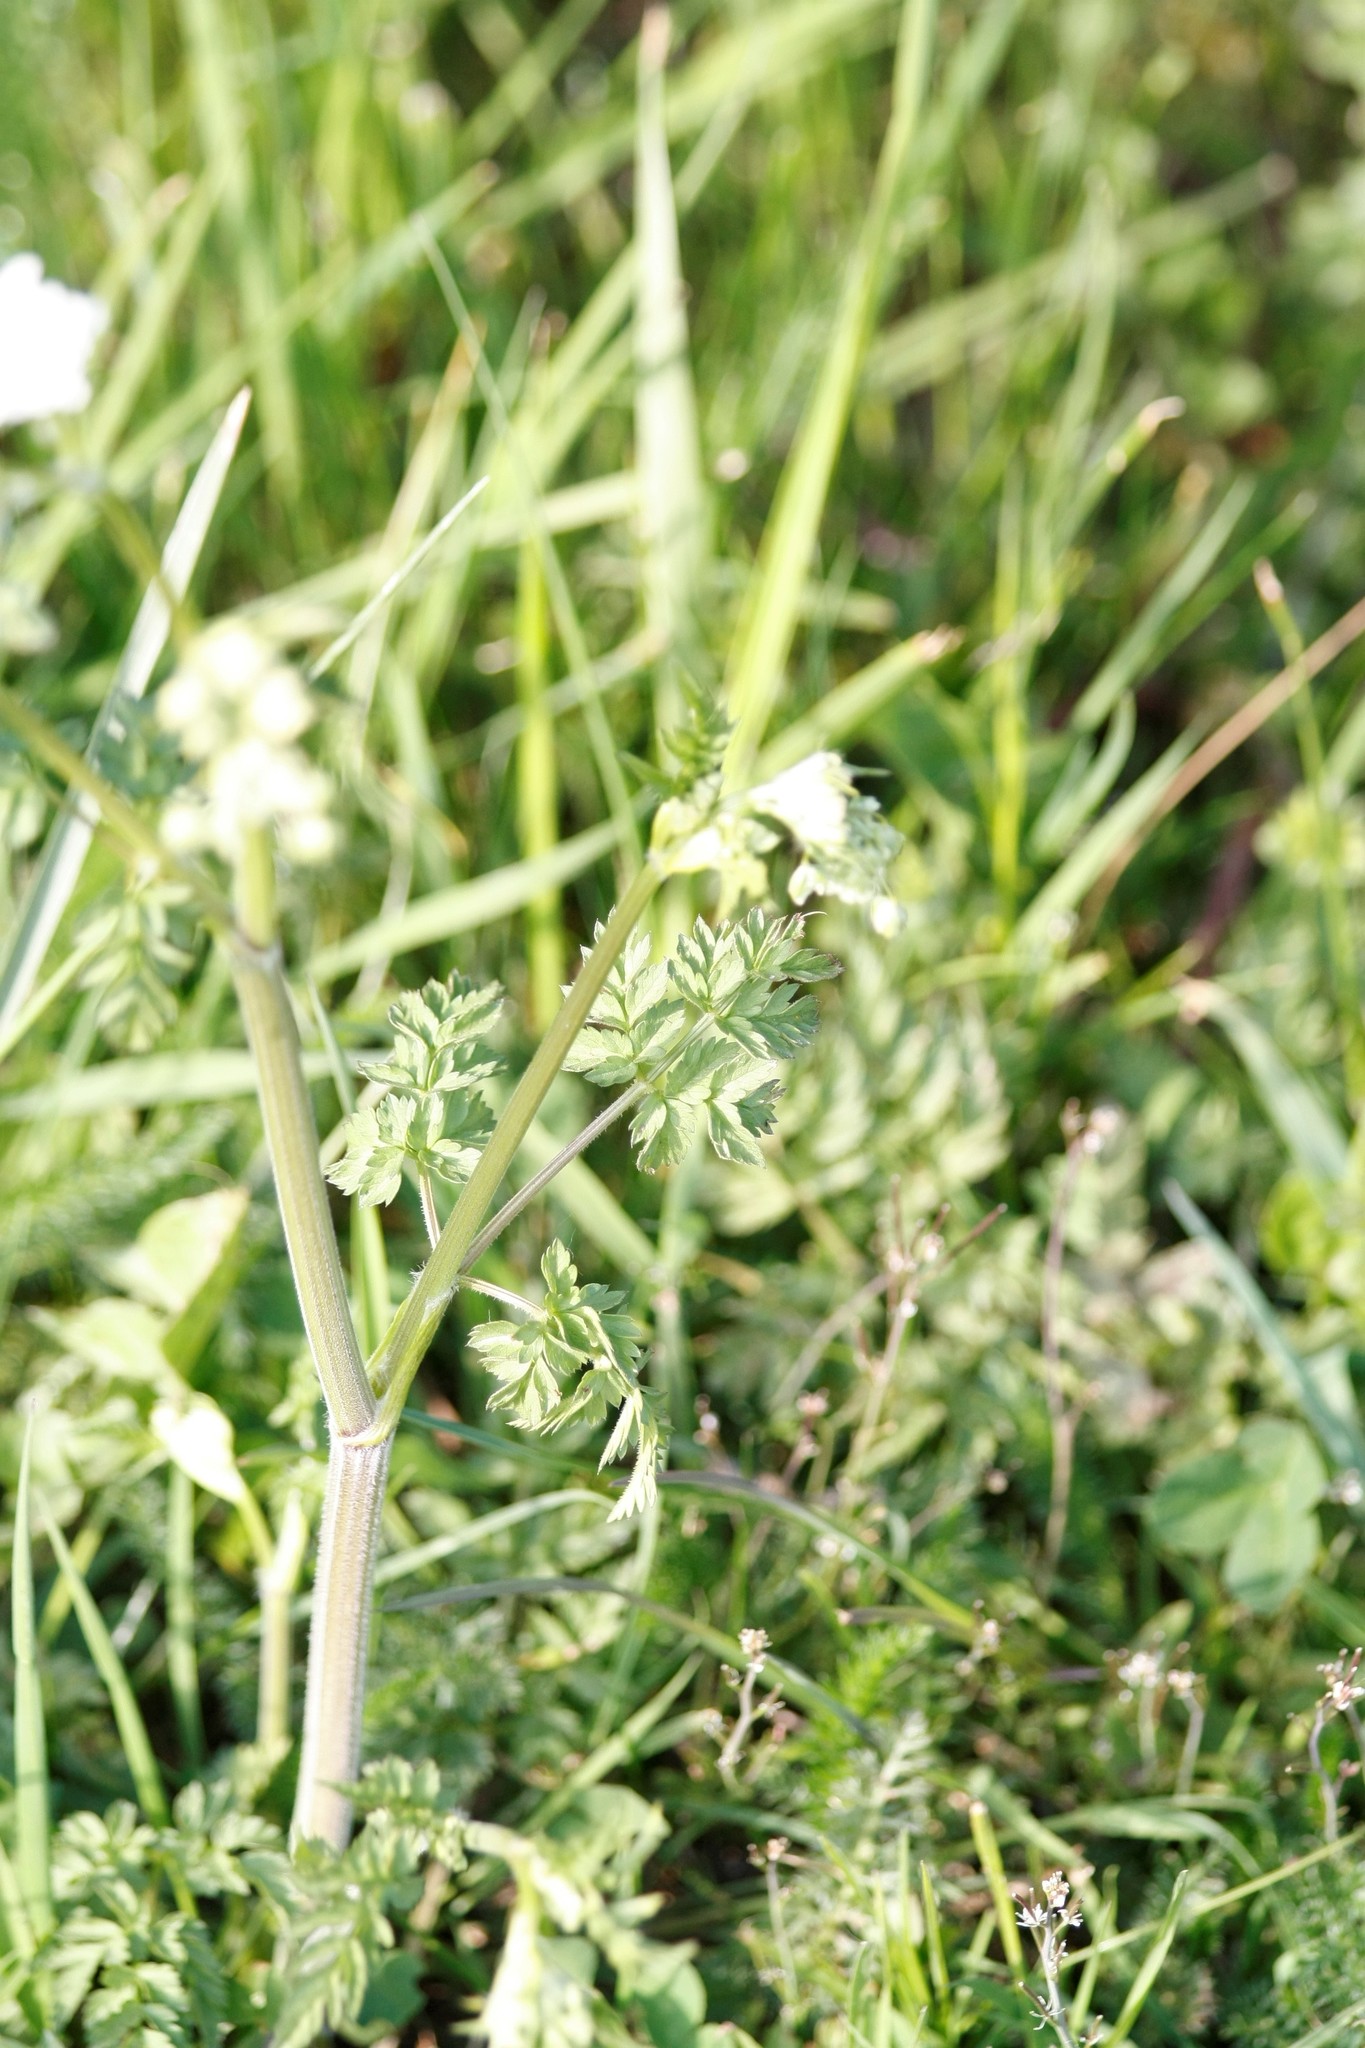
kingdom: Plantae
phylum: Tracheophyta
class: Magnoliopsida
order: Apiales
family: Apiaceae
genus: Anthriscus
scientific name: Anthriscus sylvestris
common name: Cow parsley
